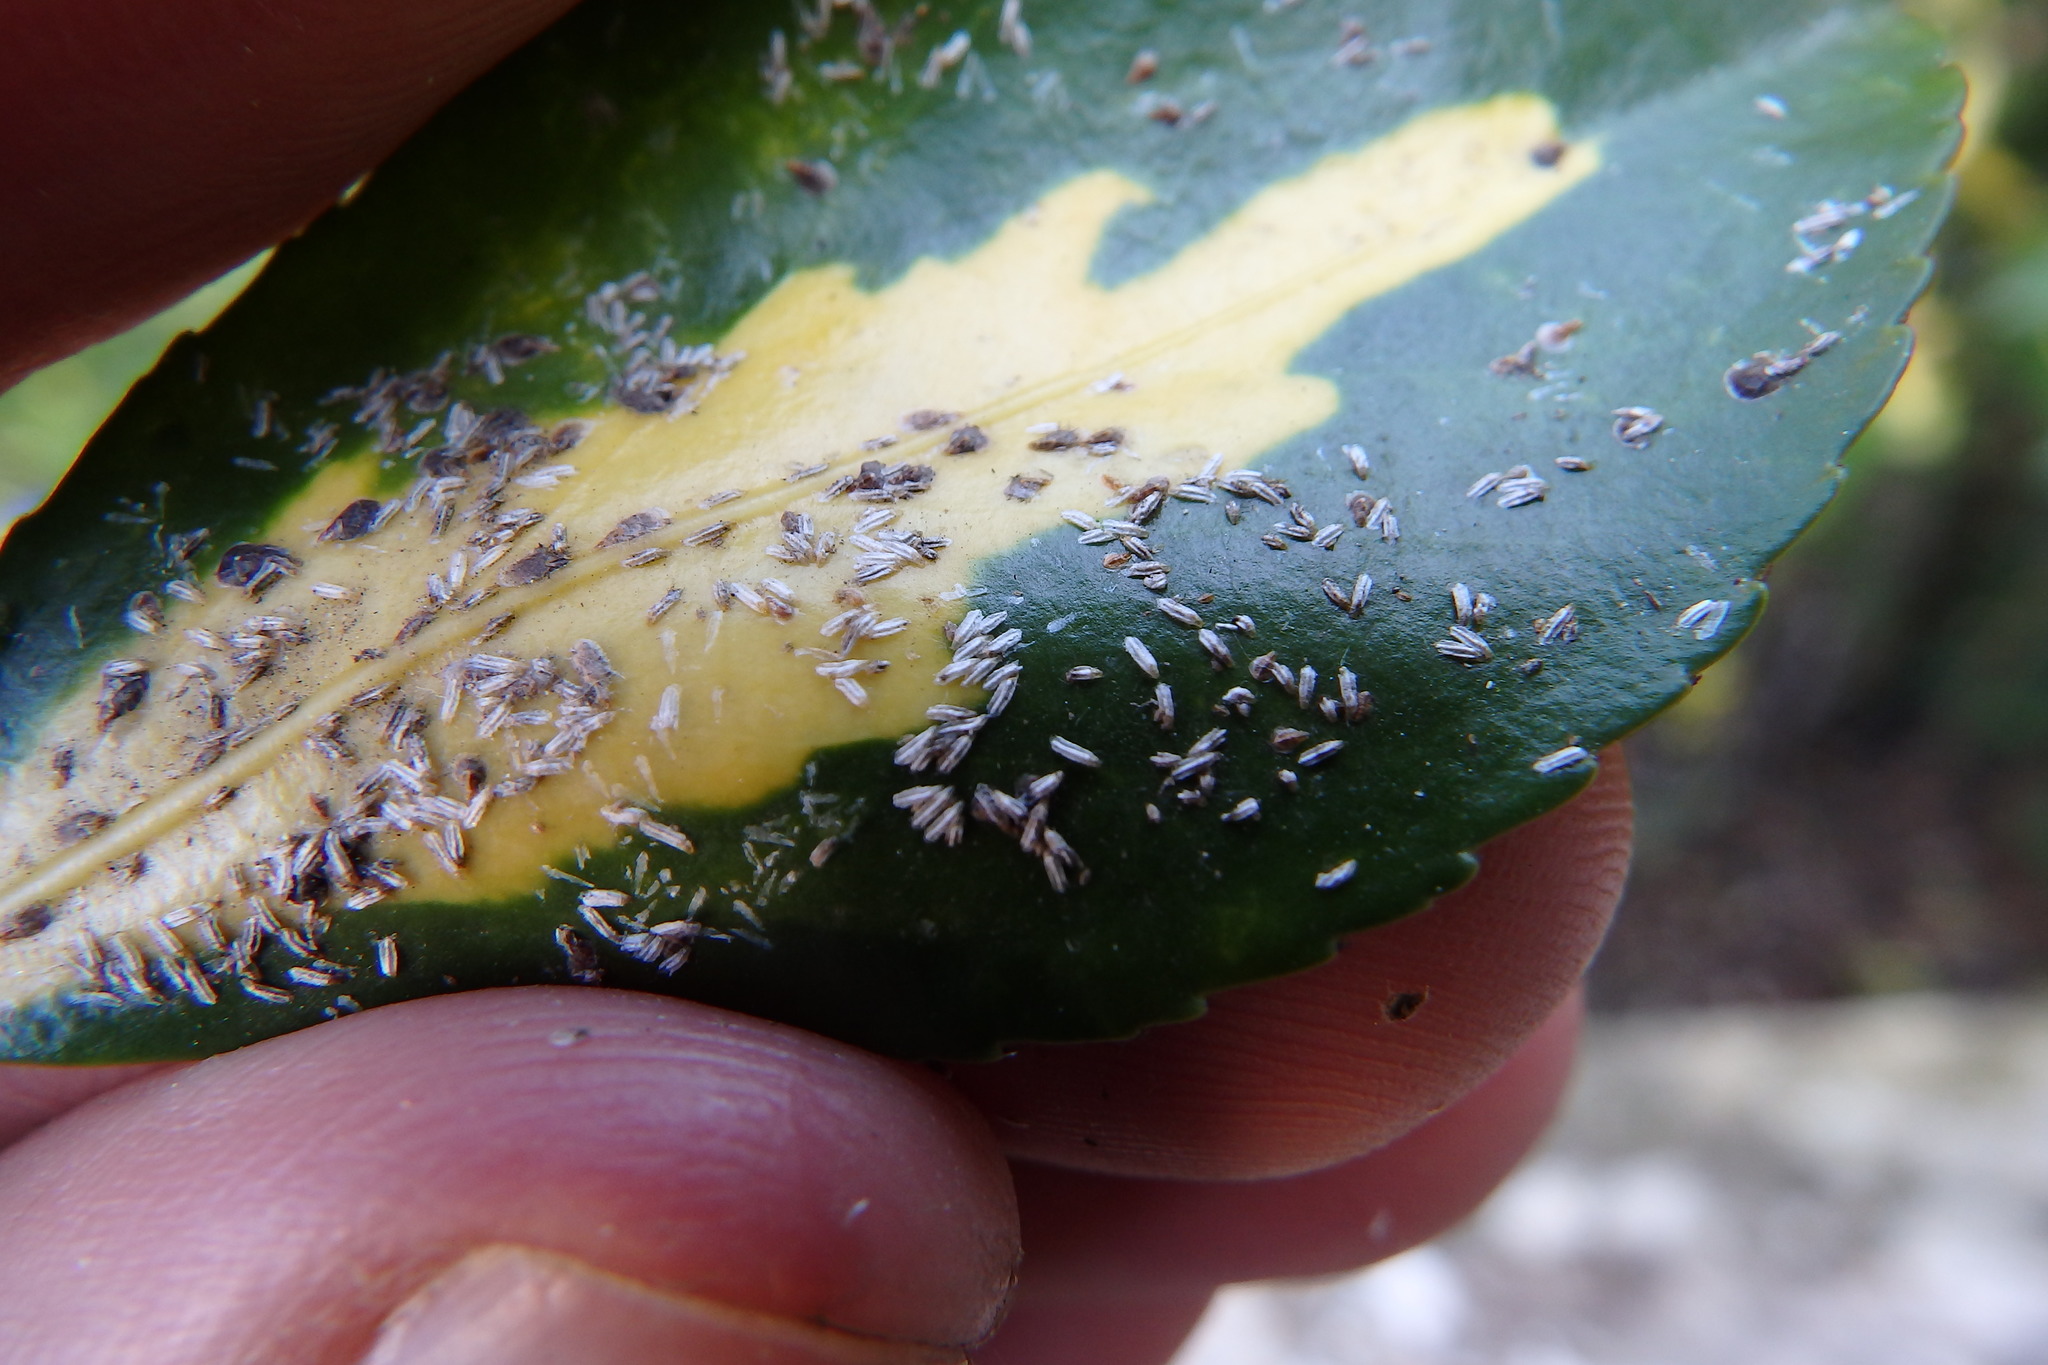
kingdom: Animalia
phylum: Arthropoda
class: Insecta
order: Hemiptera
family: Diaspididae
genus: Unaspis
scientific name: Unaspis euonymi
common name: Euonymus scale
